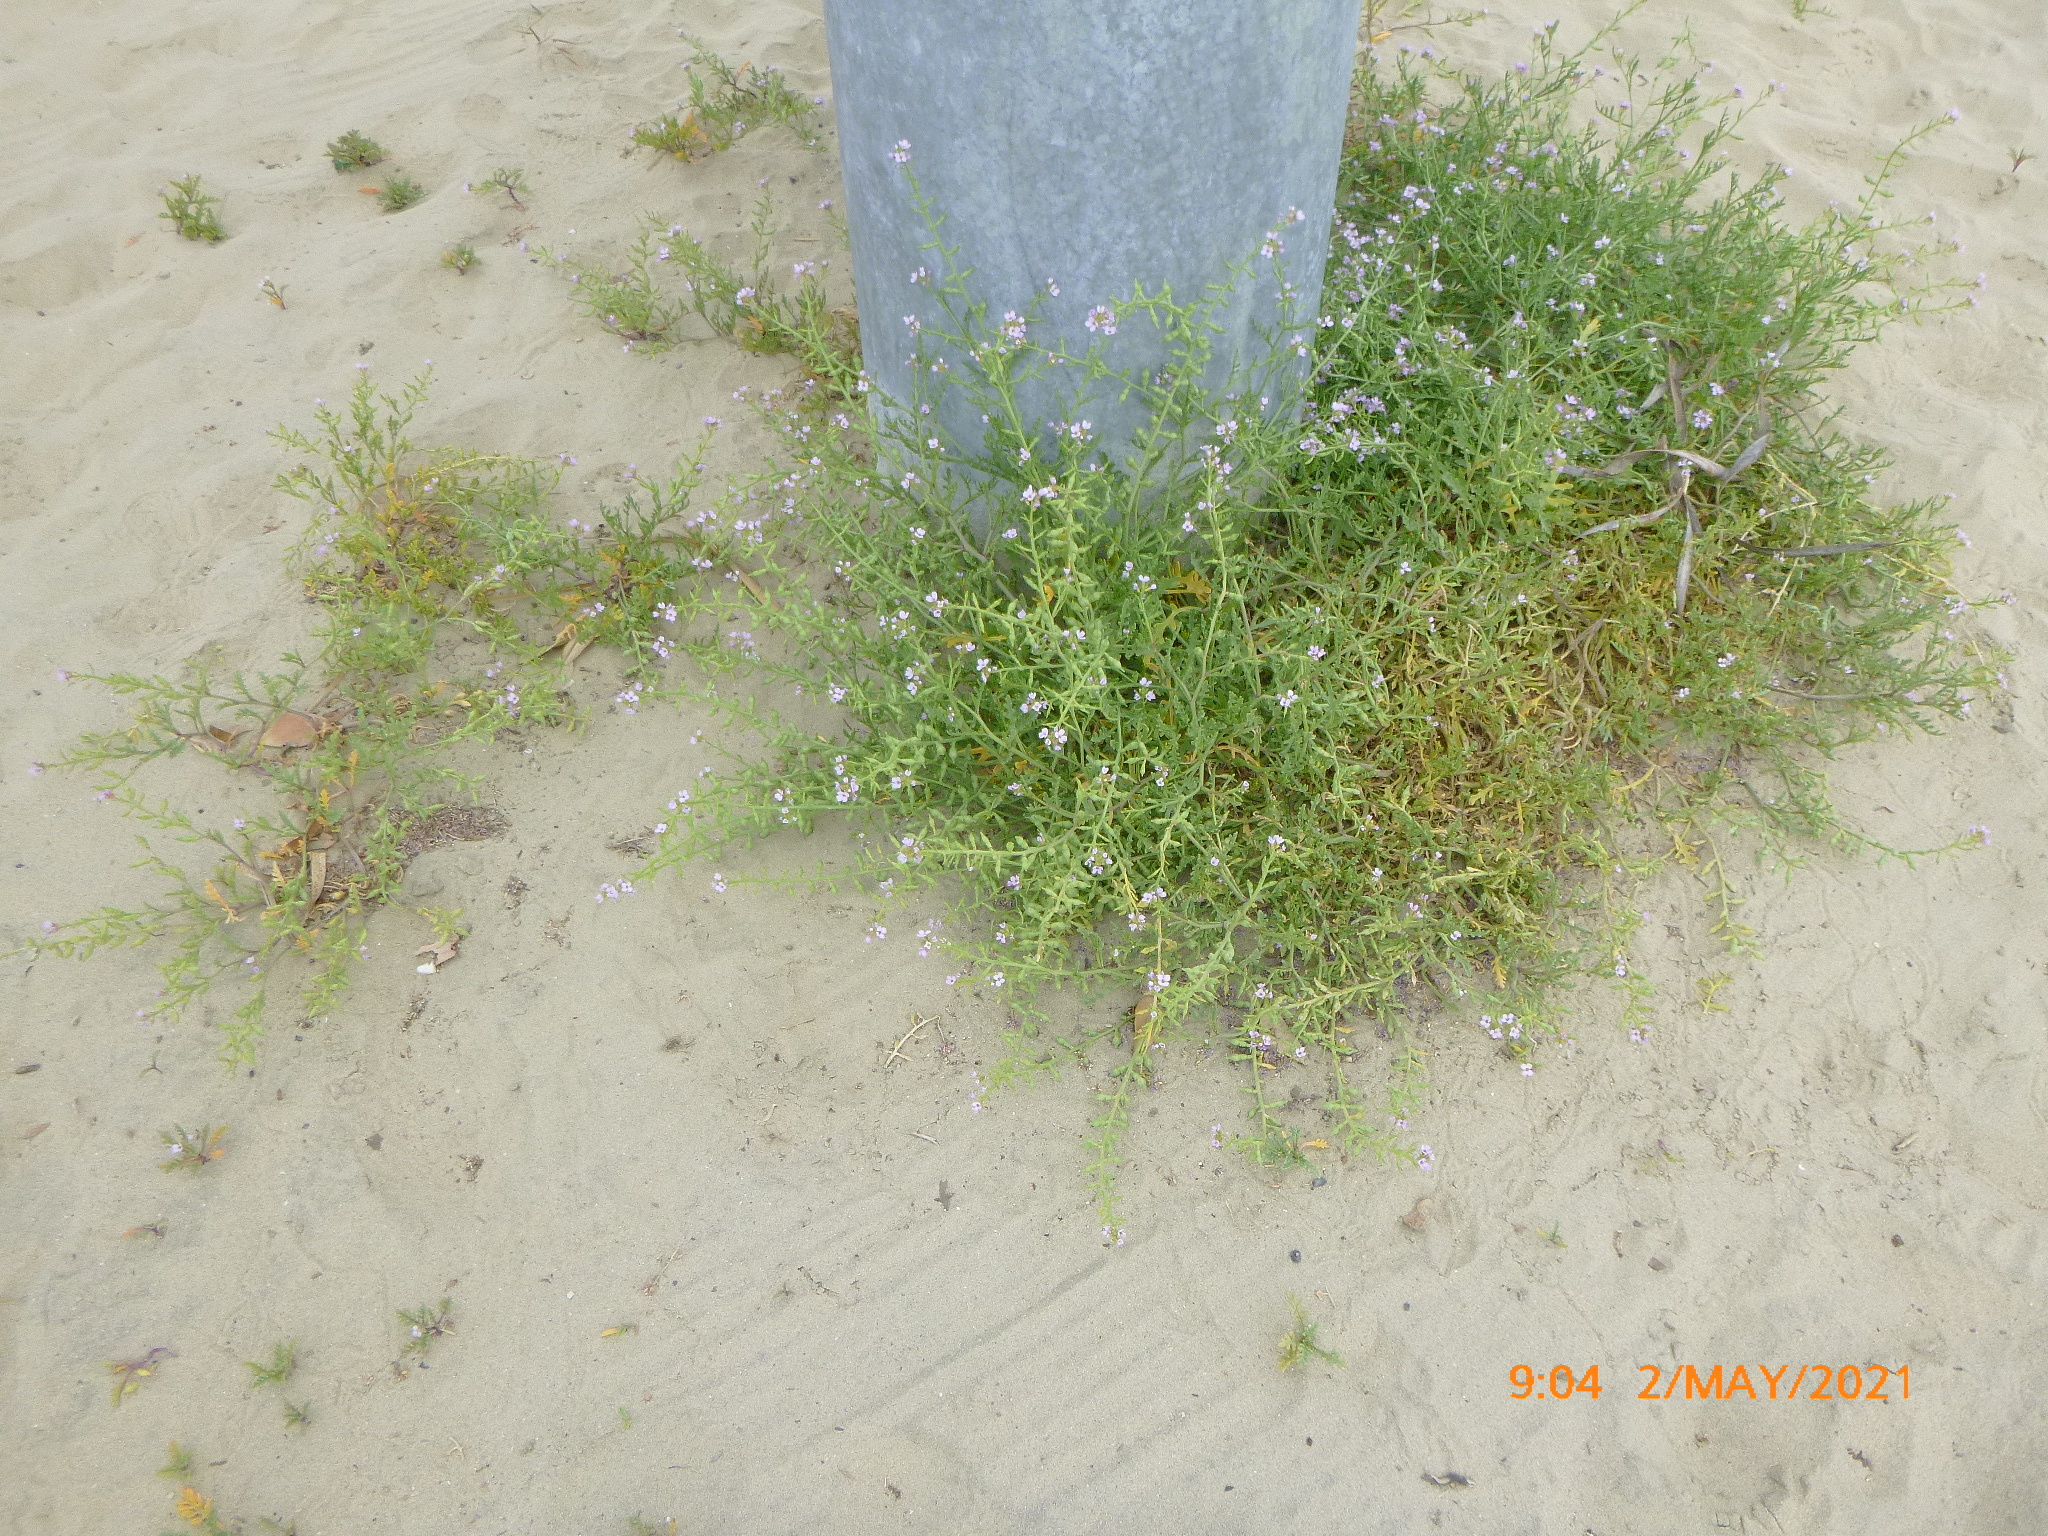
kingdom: Plantae
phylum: Tracheophyta
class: Magnoliopsida
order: Brassicales
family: Brassicaceae
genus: Cakile
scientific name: Cakile maritima
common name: Sea rocket
